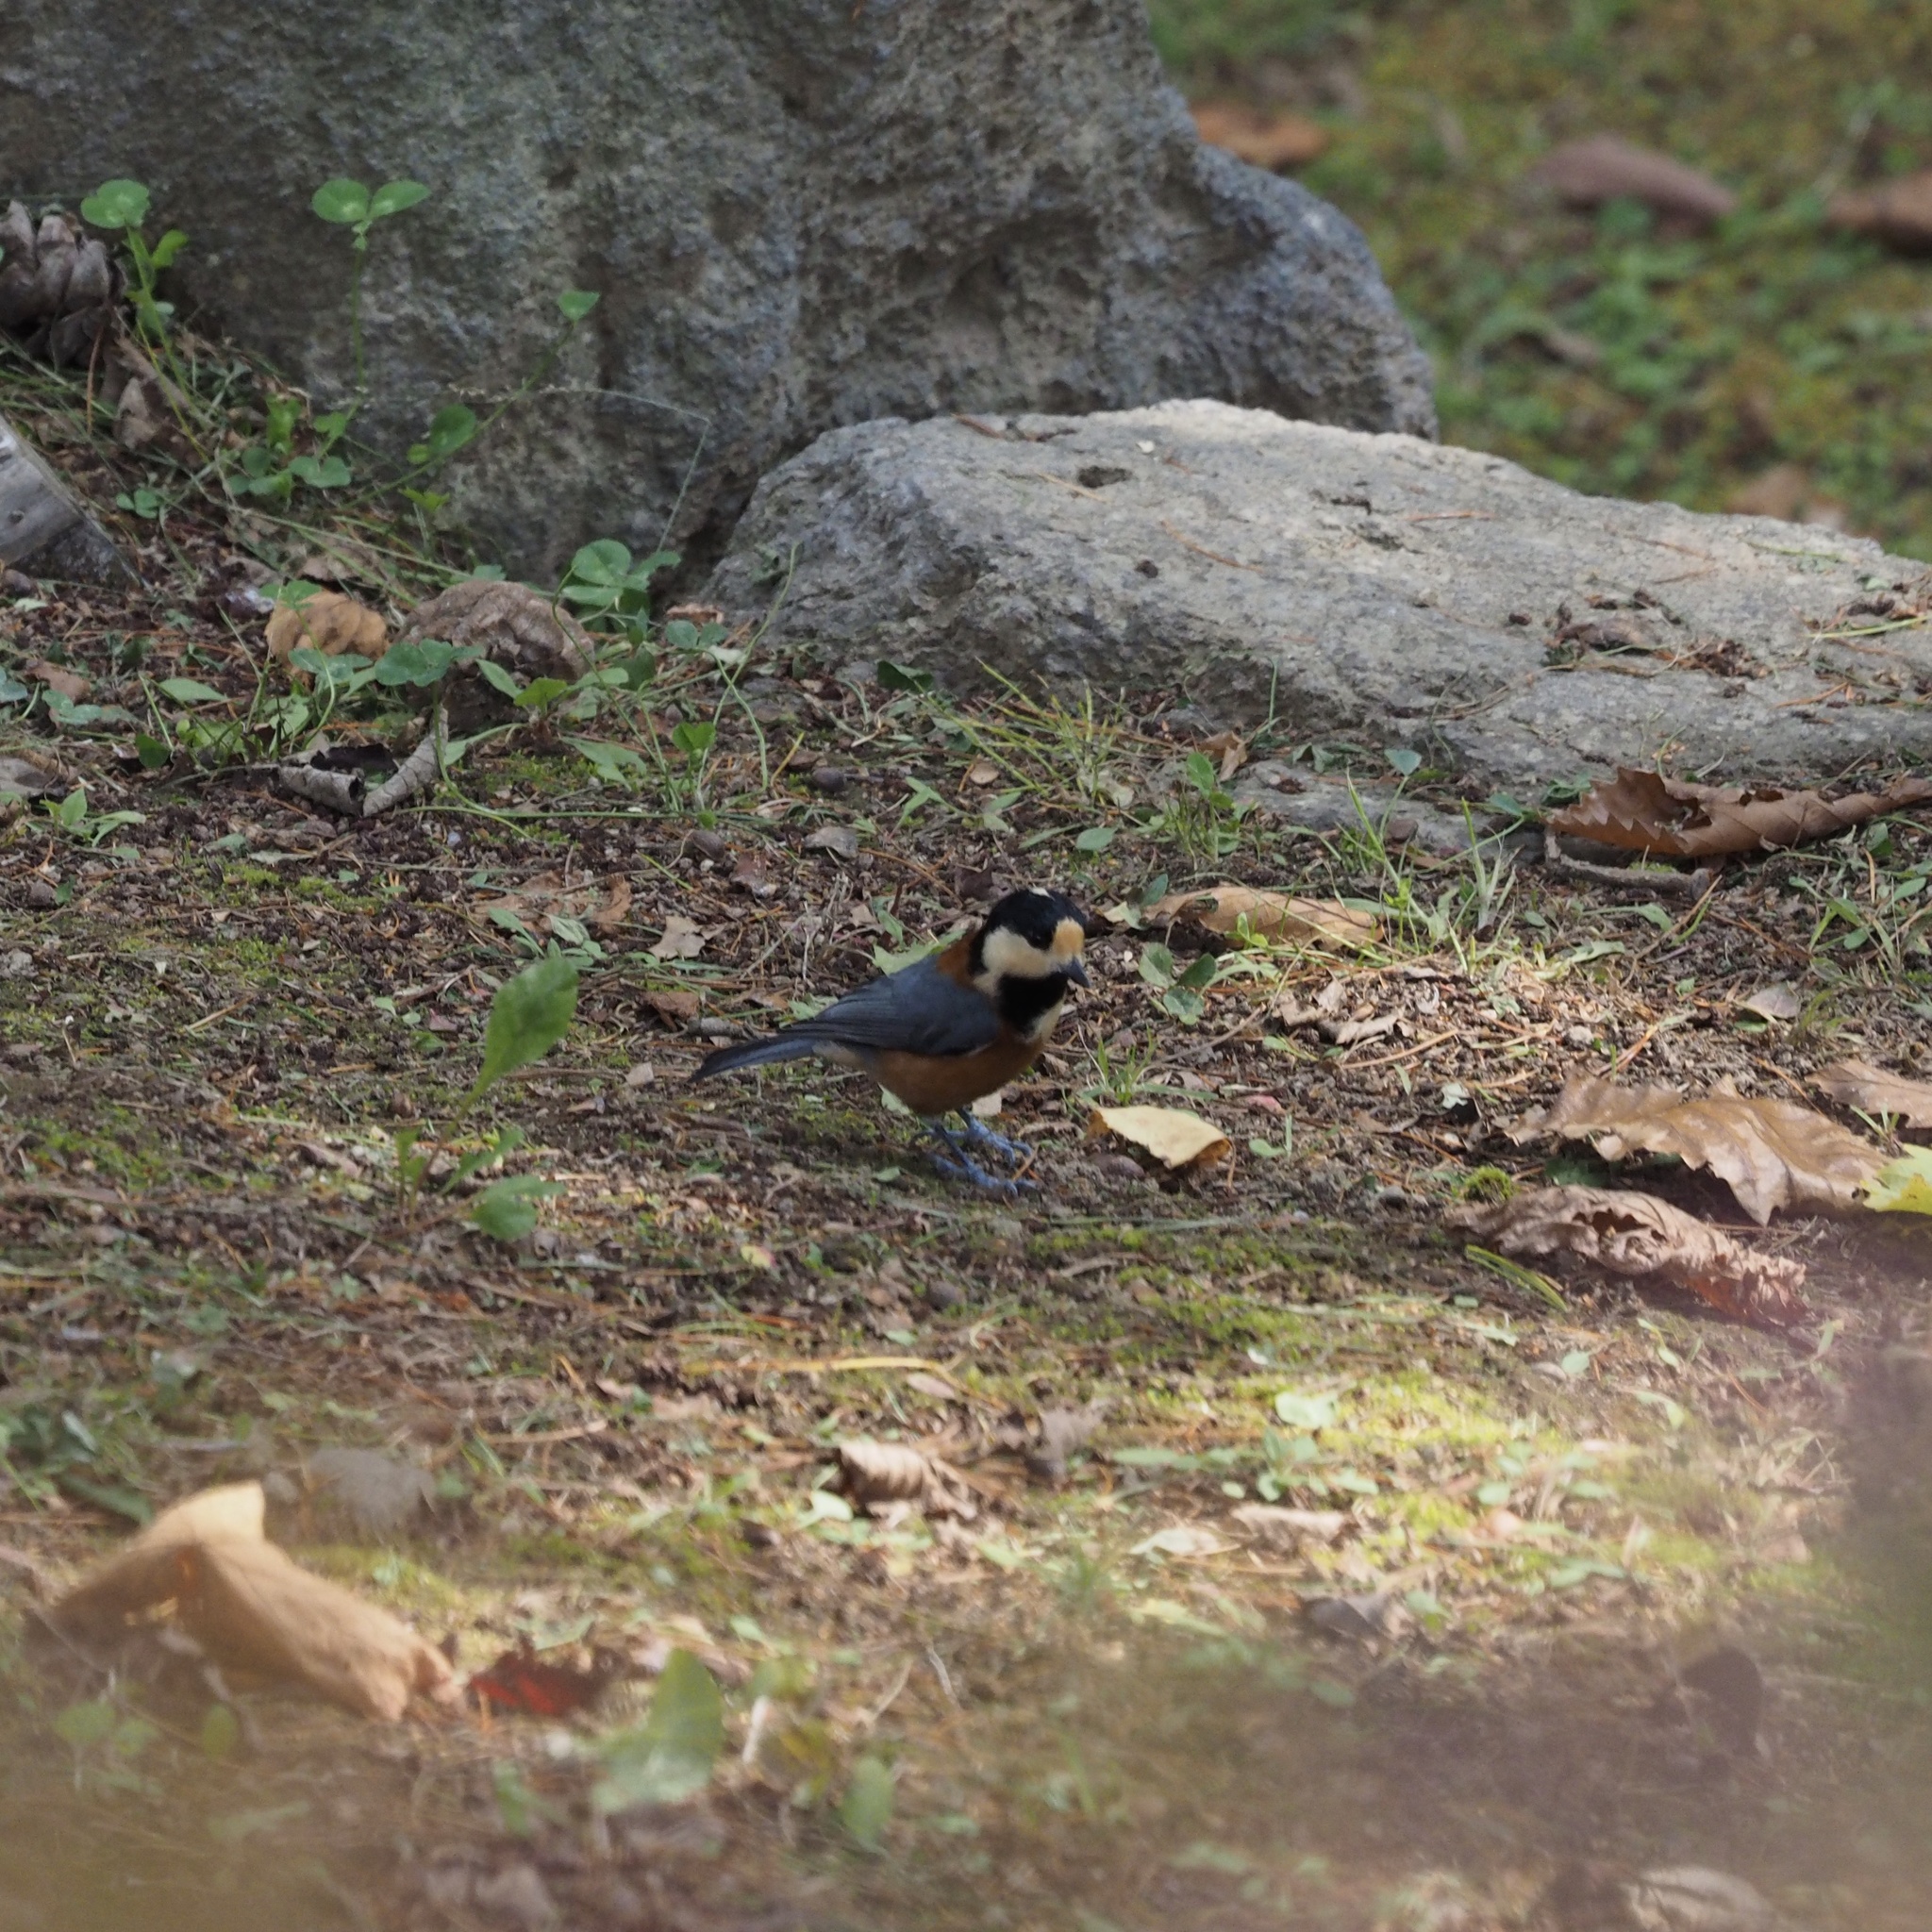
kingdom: Animalia
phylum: Chordata
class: Aves
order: Passeriformes
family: Paridae
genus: Poecile
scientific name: Poecile varius
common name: Varied tit
